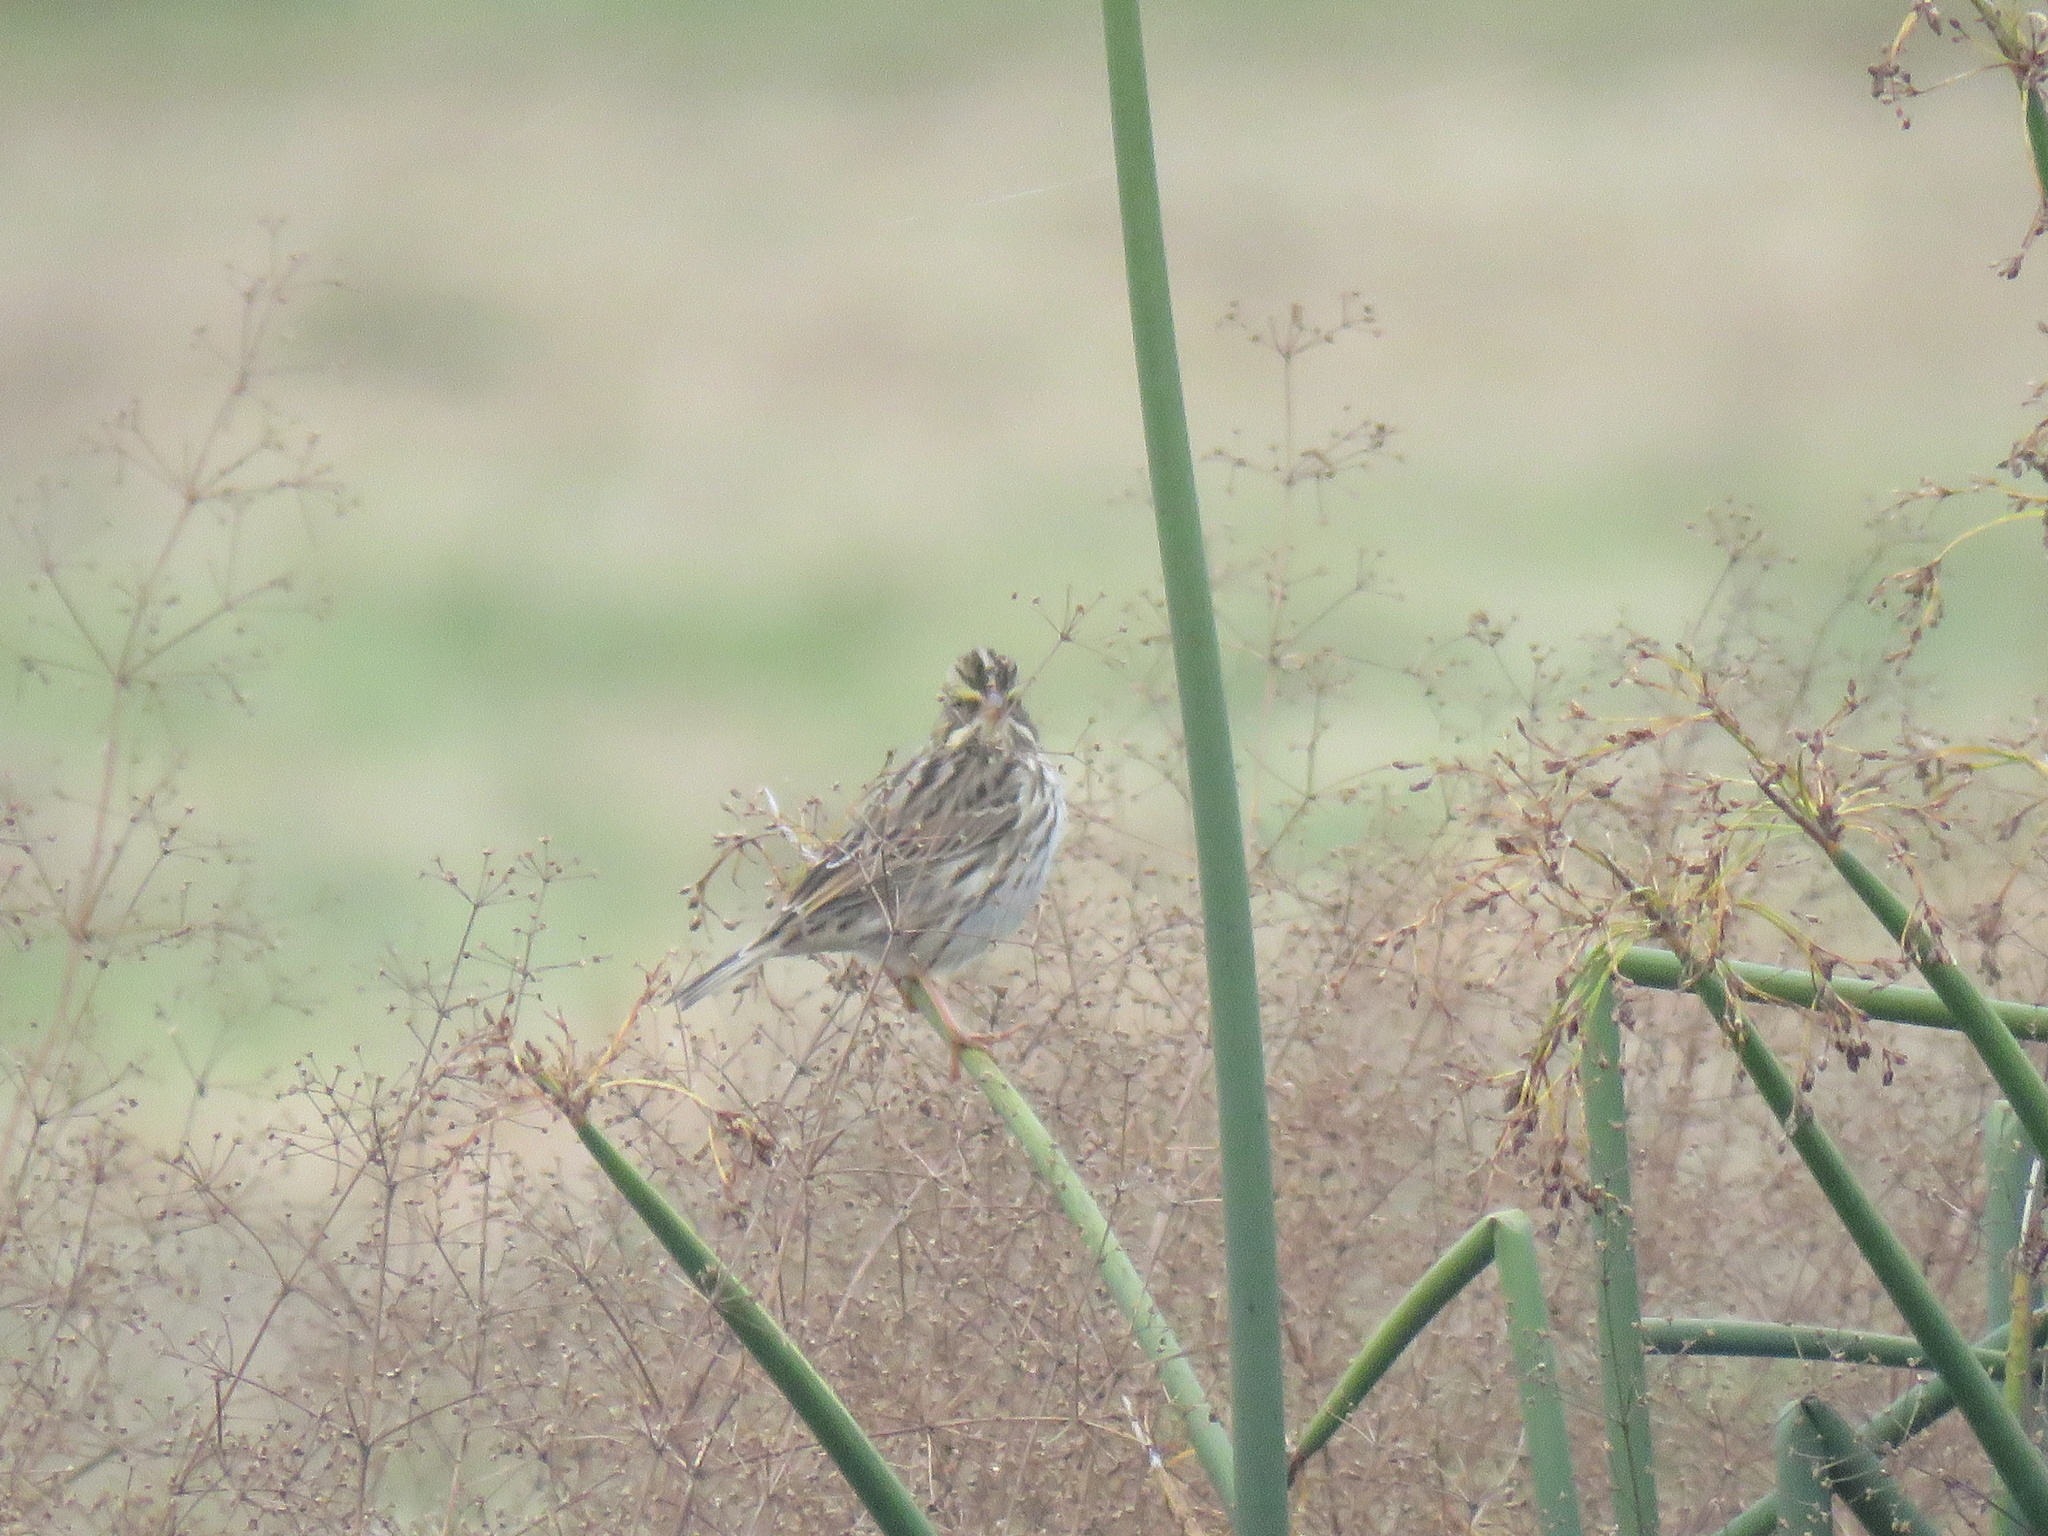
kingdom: Animalia
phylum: Chordata
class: Aves
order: Passeriformes
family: Passerellidae
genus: Passerculus
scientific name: Passerculus sandwichensis
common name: Savannah sparrow
